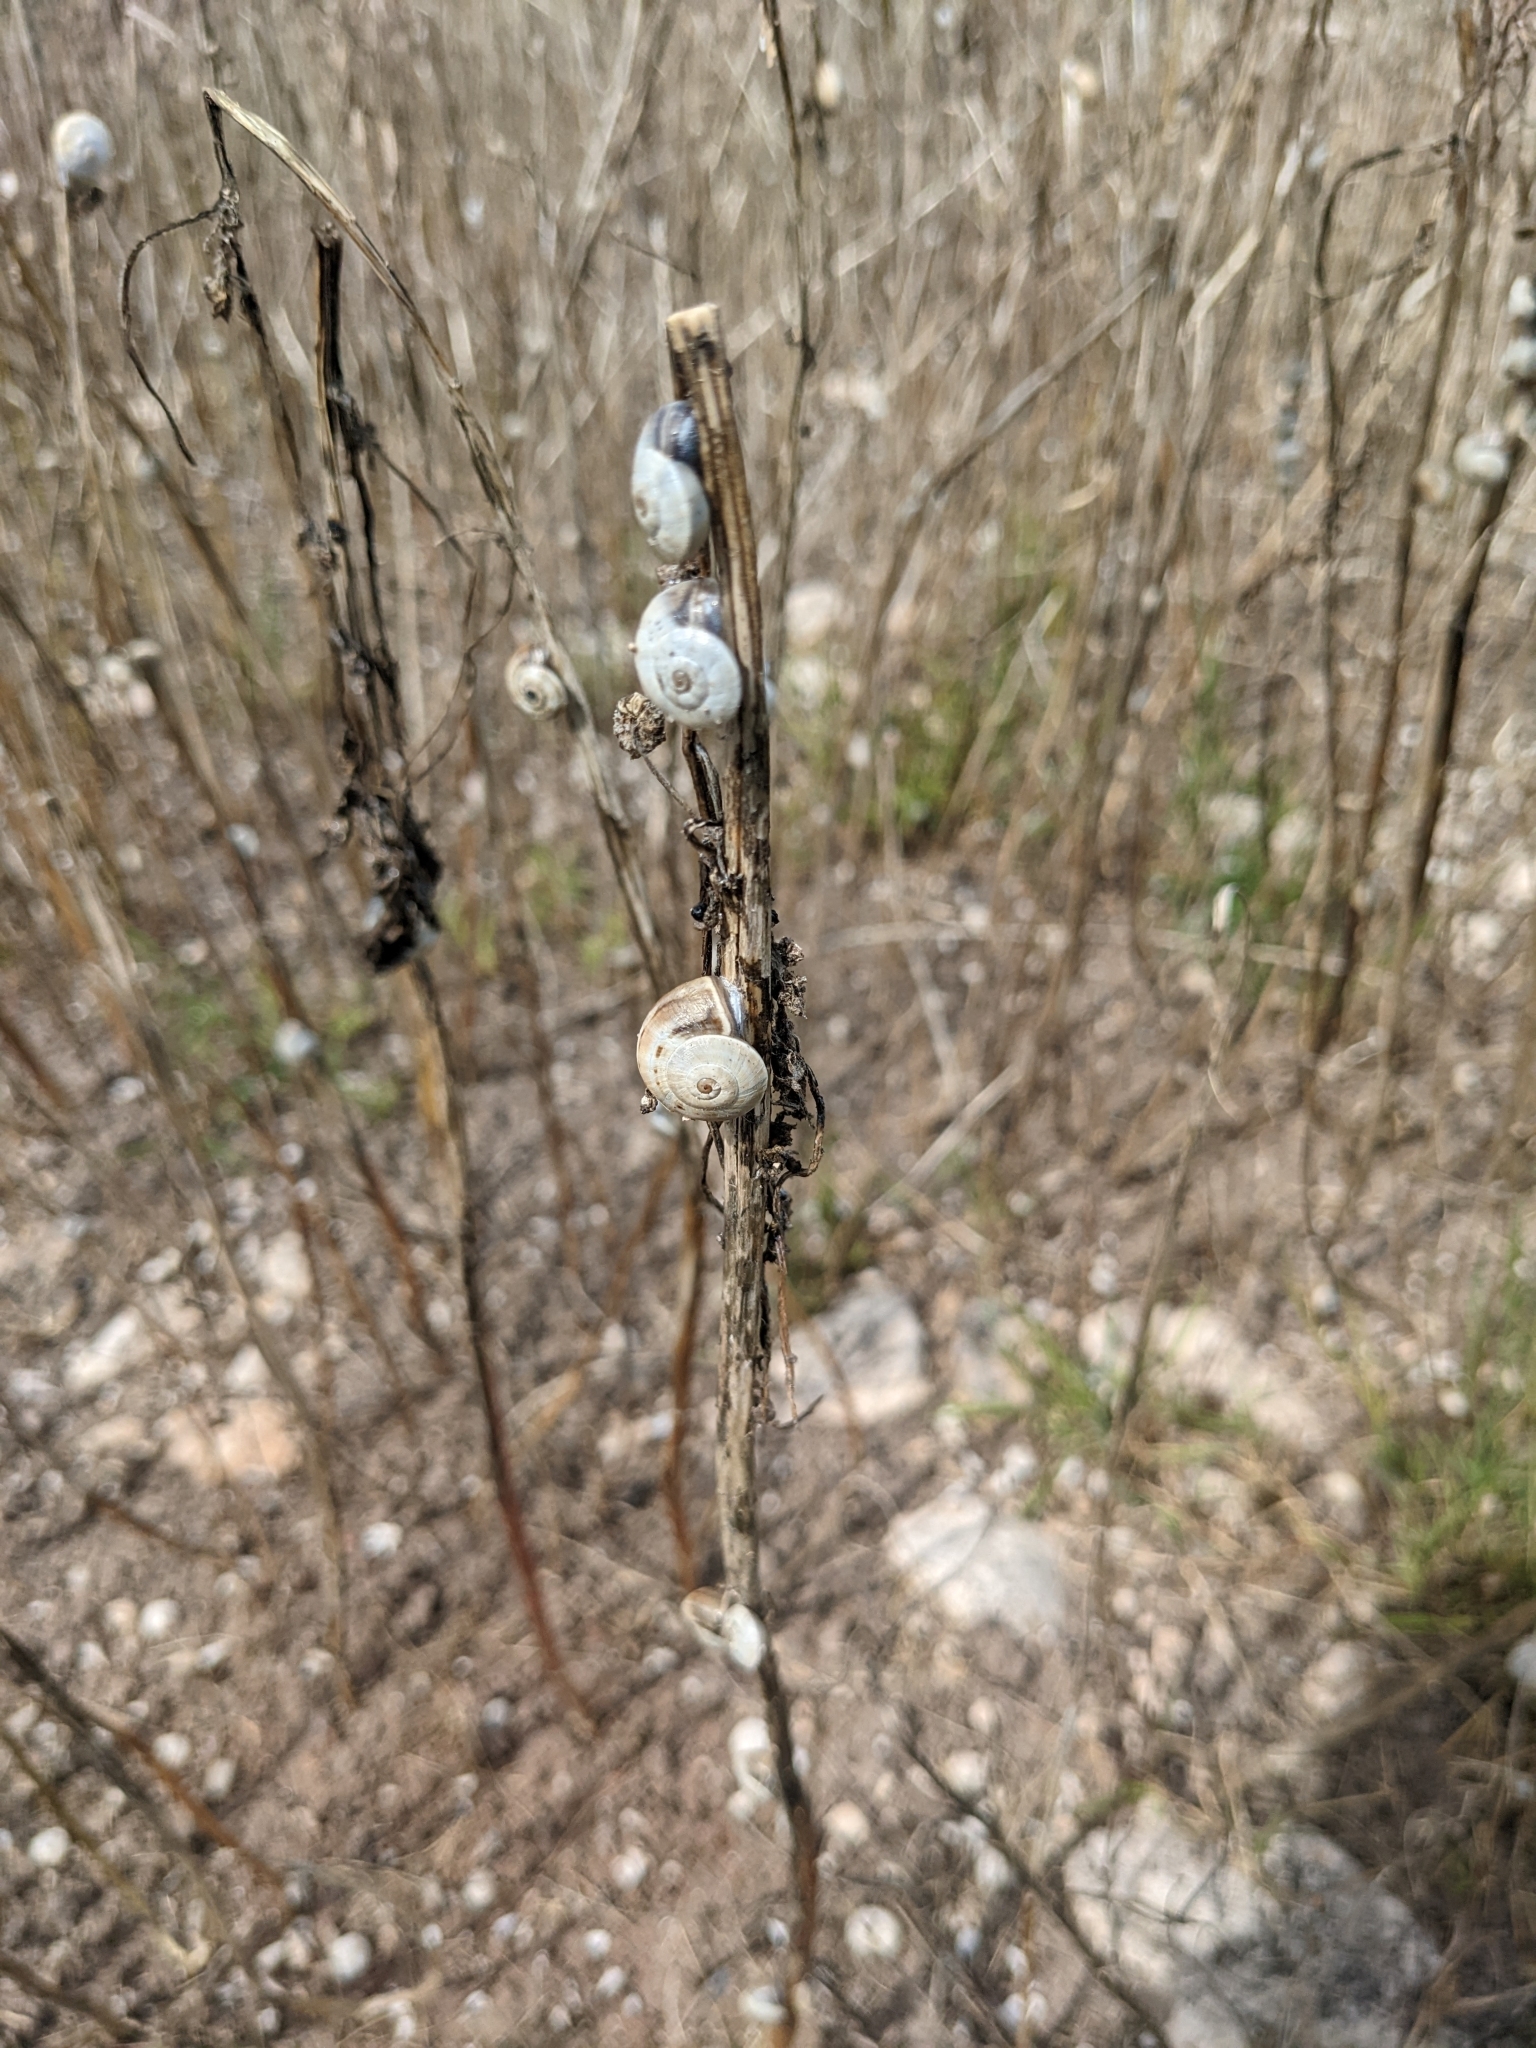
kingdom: Animalia
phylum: Mollusca
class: Gastropoda
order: Stylommatophora
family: Helicidae
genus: Theba
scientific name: Theba pisana
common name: White snail
